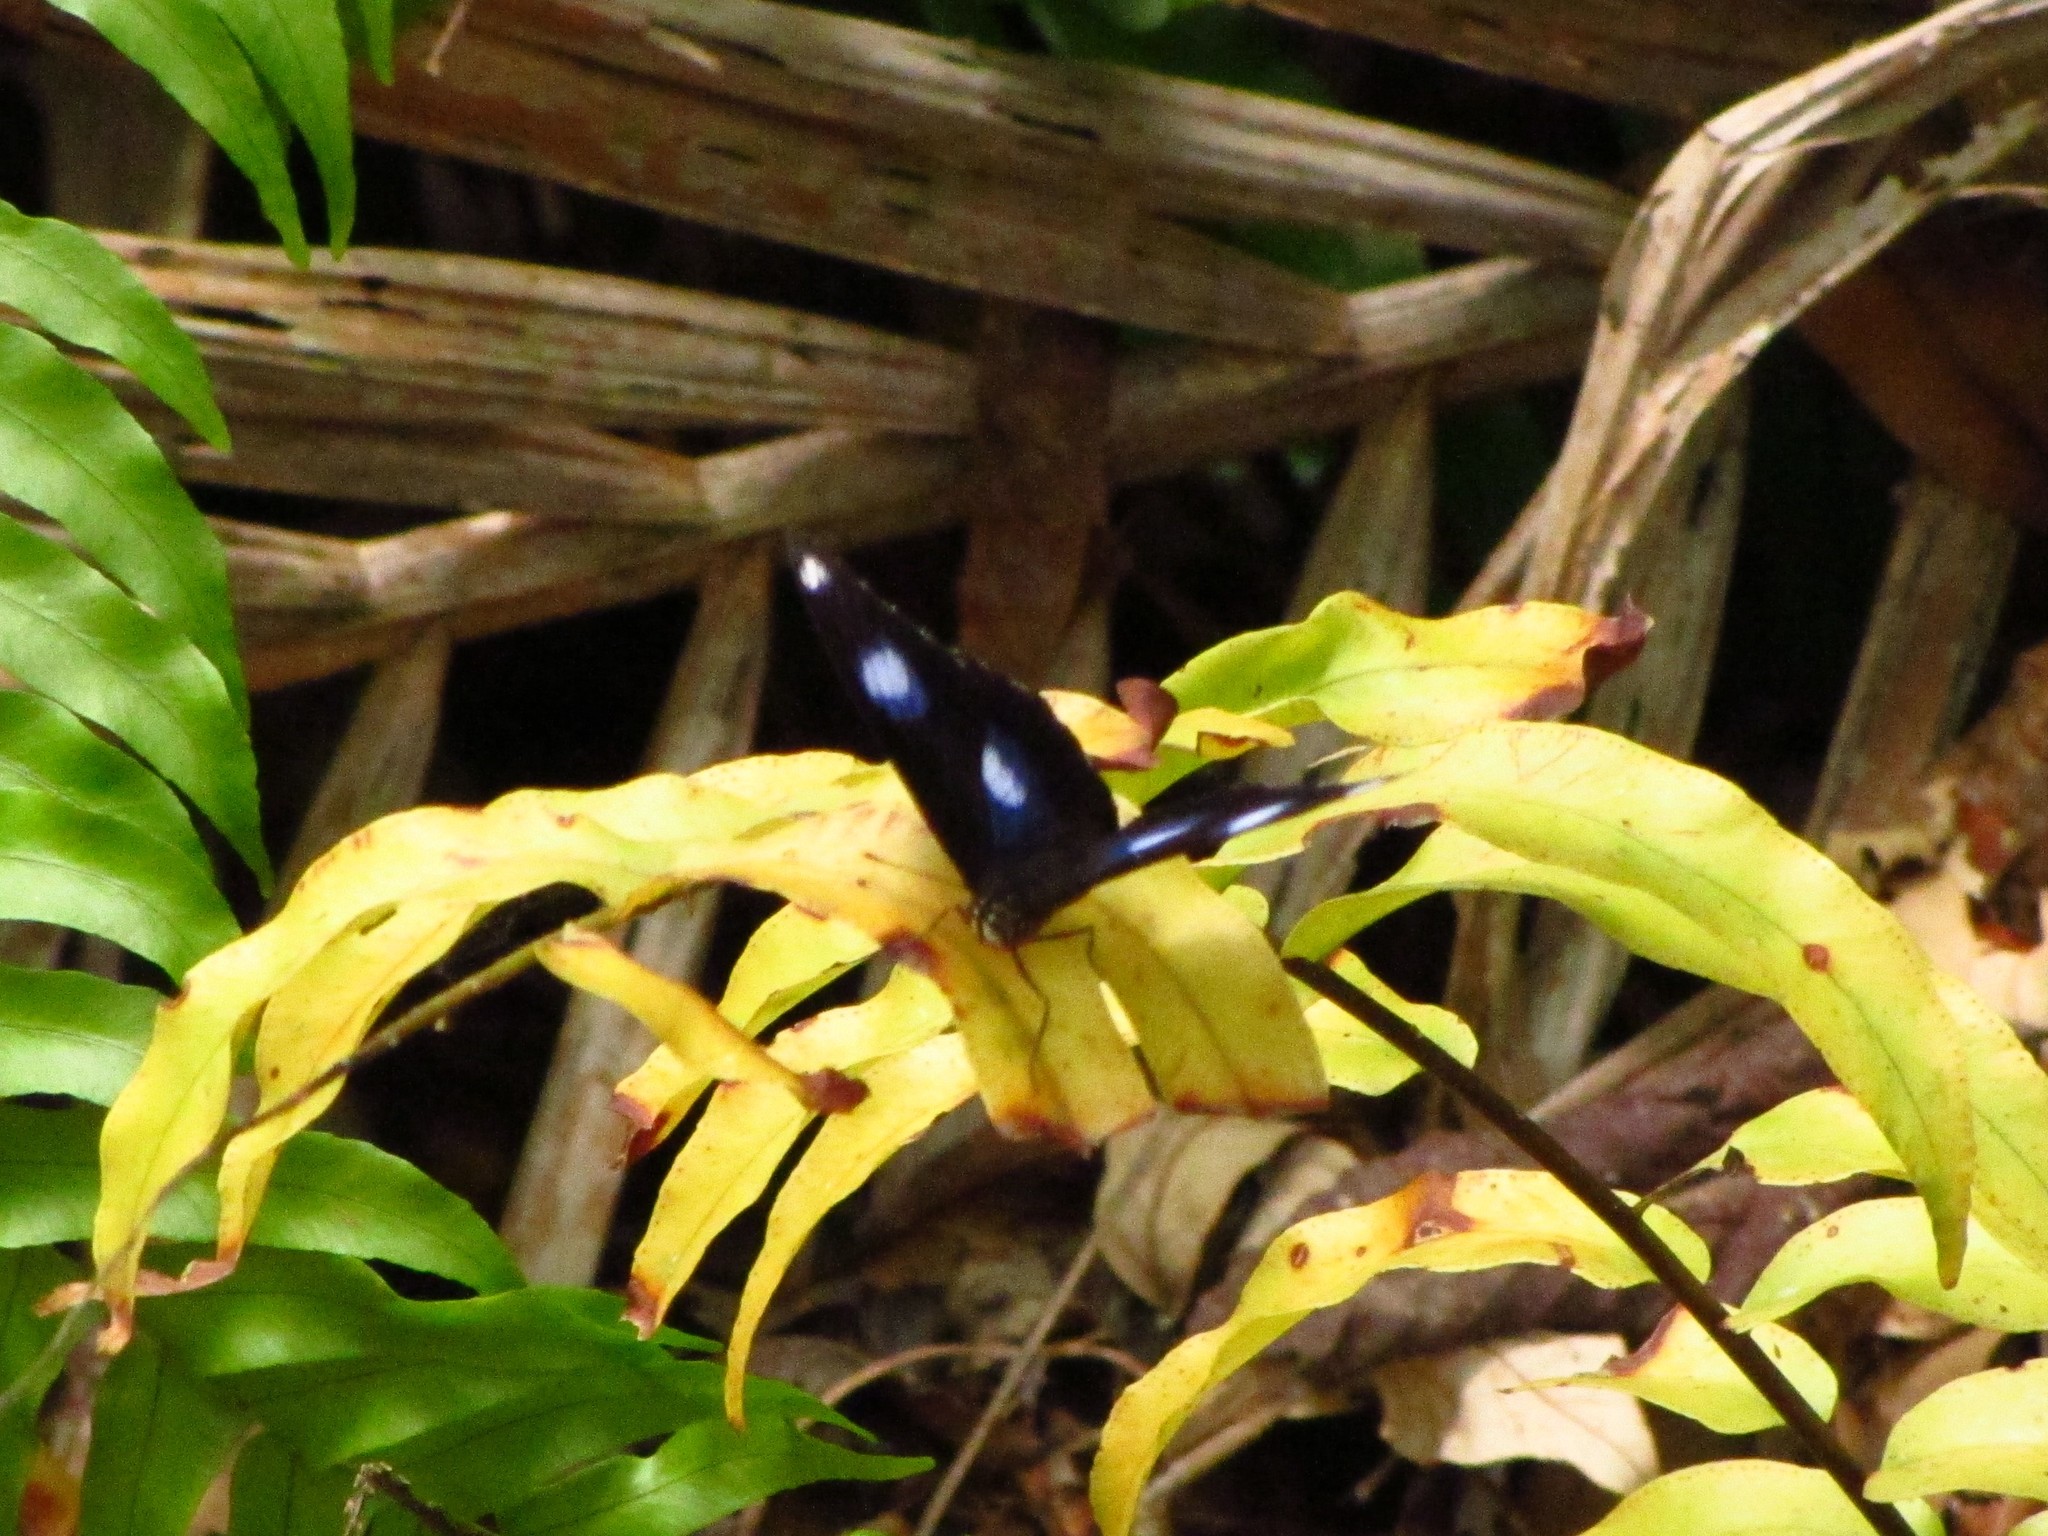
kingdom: Animalia
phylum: Arthropoda
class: Insecta
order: Lepidoptera
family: Nymphalidae
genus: Hypolimnas
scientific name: Hypolimnas bolina
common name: Great eggfly
